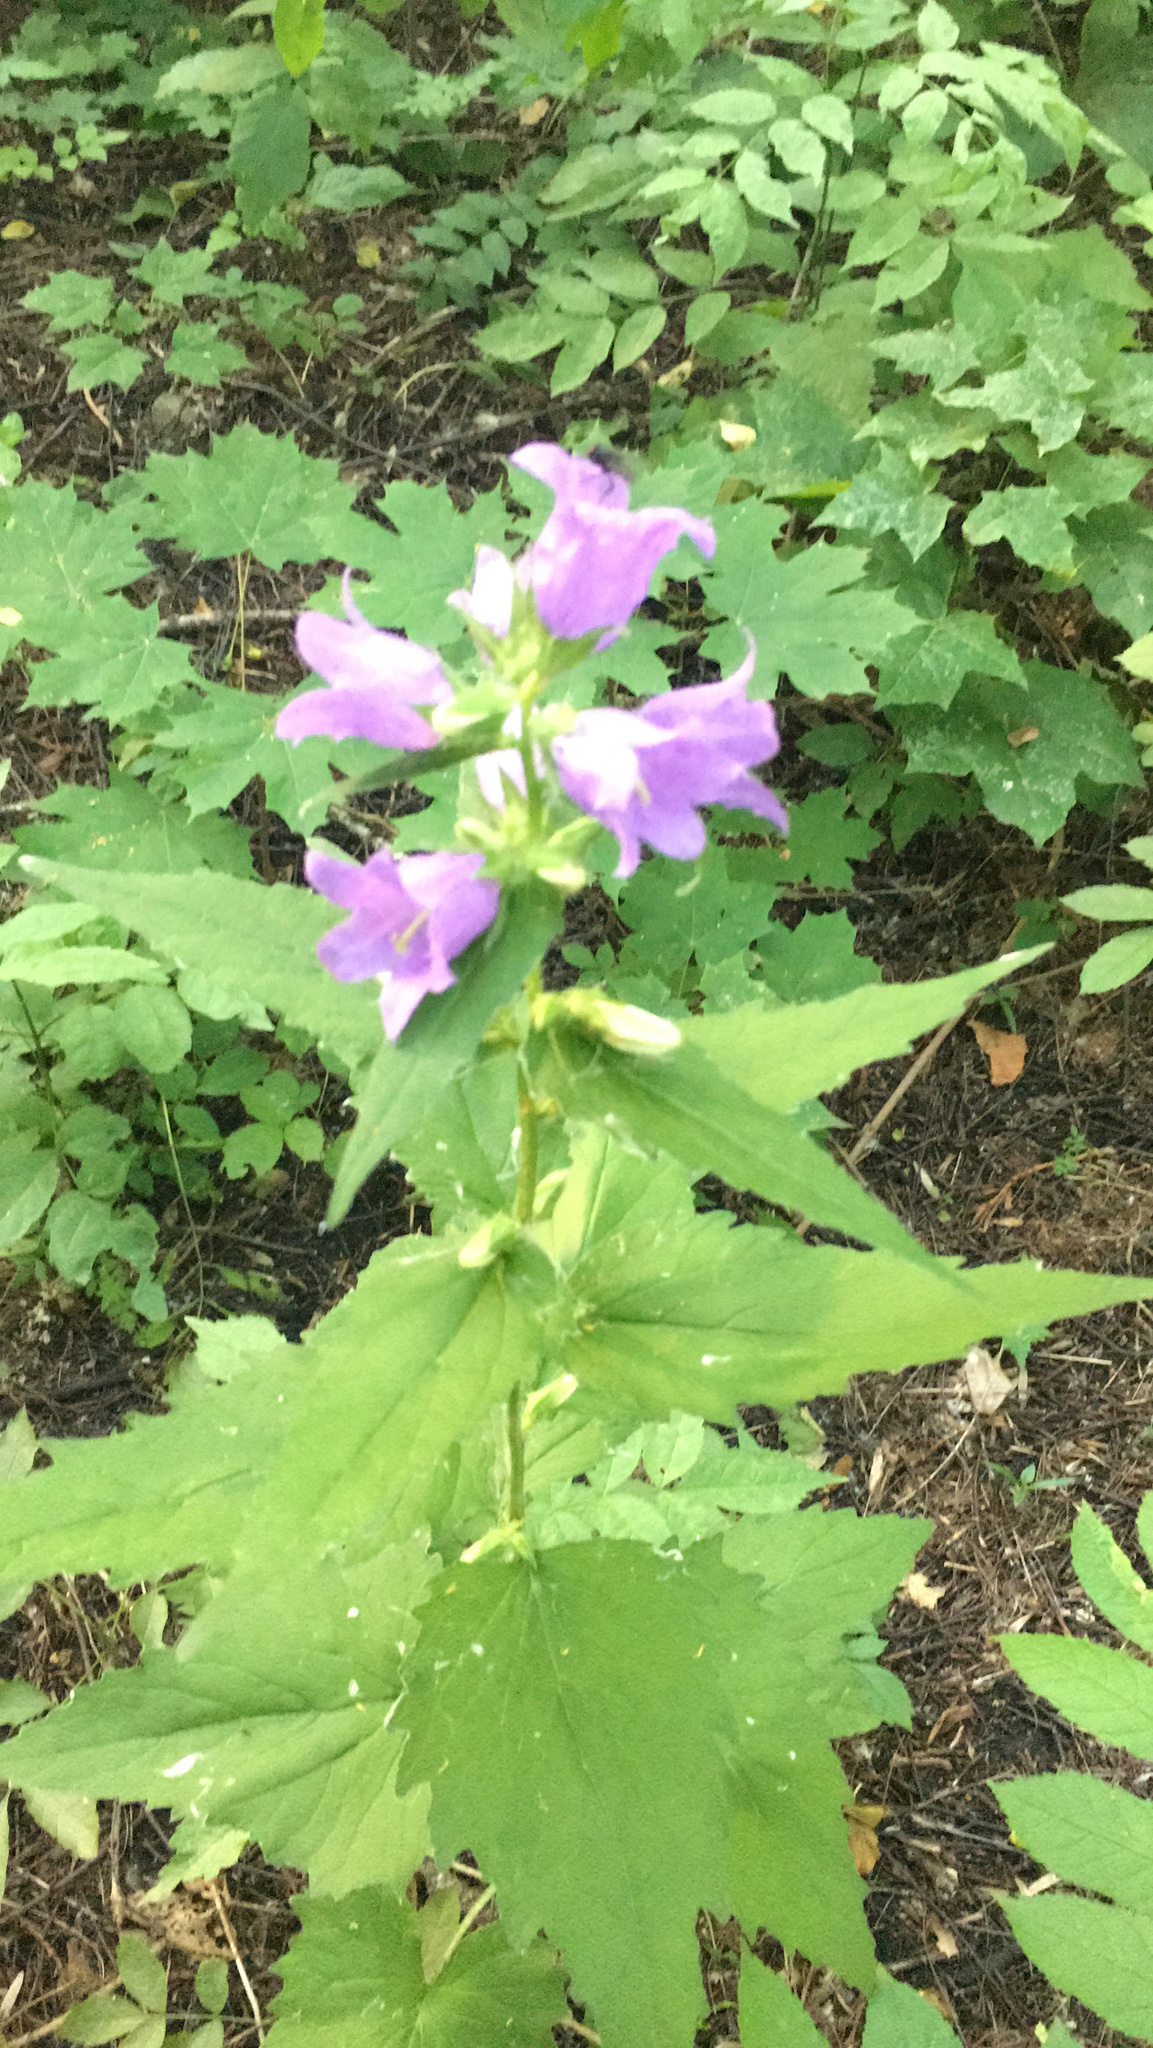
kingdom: Plantae
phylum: Tracheophyta
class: Magnoliopsida
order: Asterales
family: Campanulaceae
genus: Campanula
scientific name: Campanula trachelium
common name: Nettle-leaved bellflower
